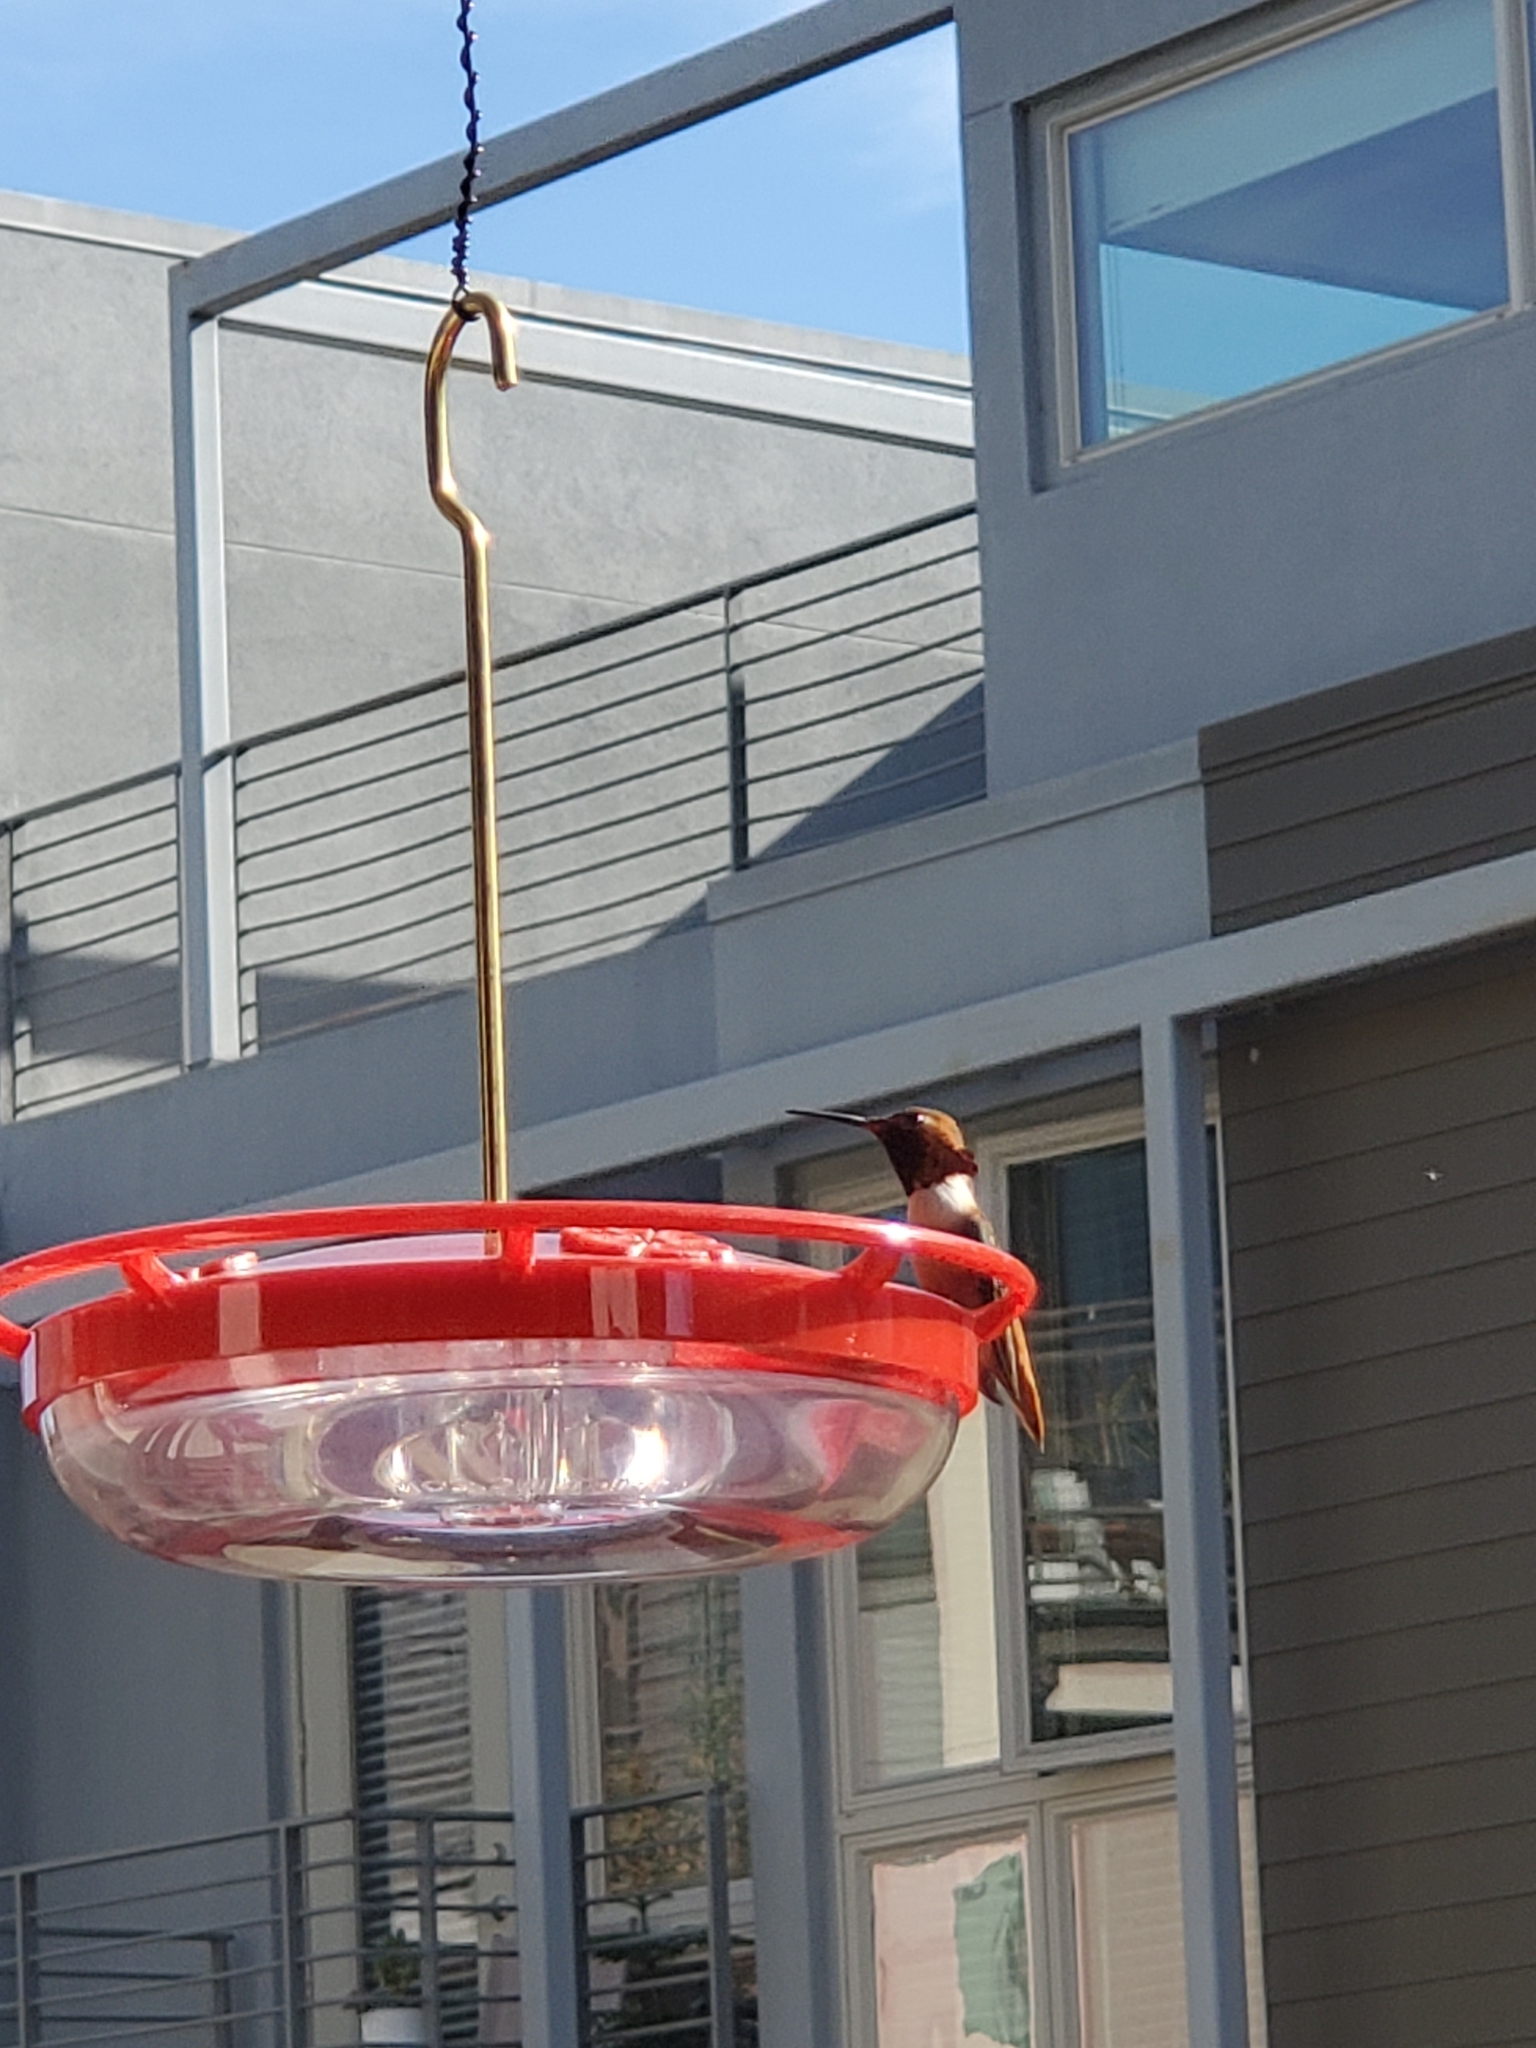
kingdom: Animalia
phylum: Chordata
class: Aves
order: Apodiformes
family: Trochilidae
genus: Selasphorus
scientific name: Selasphorus sasin
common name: Allen's hummingbird
